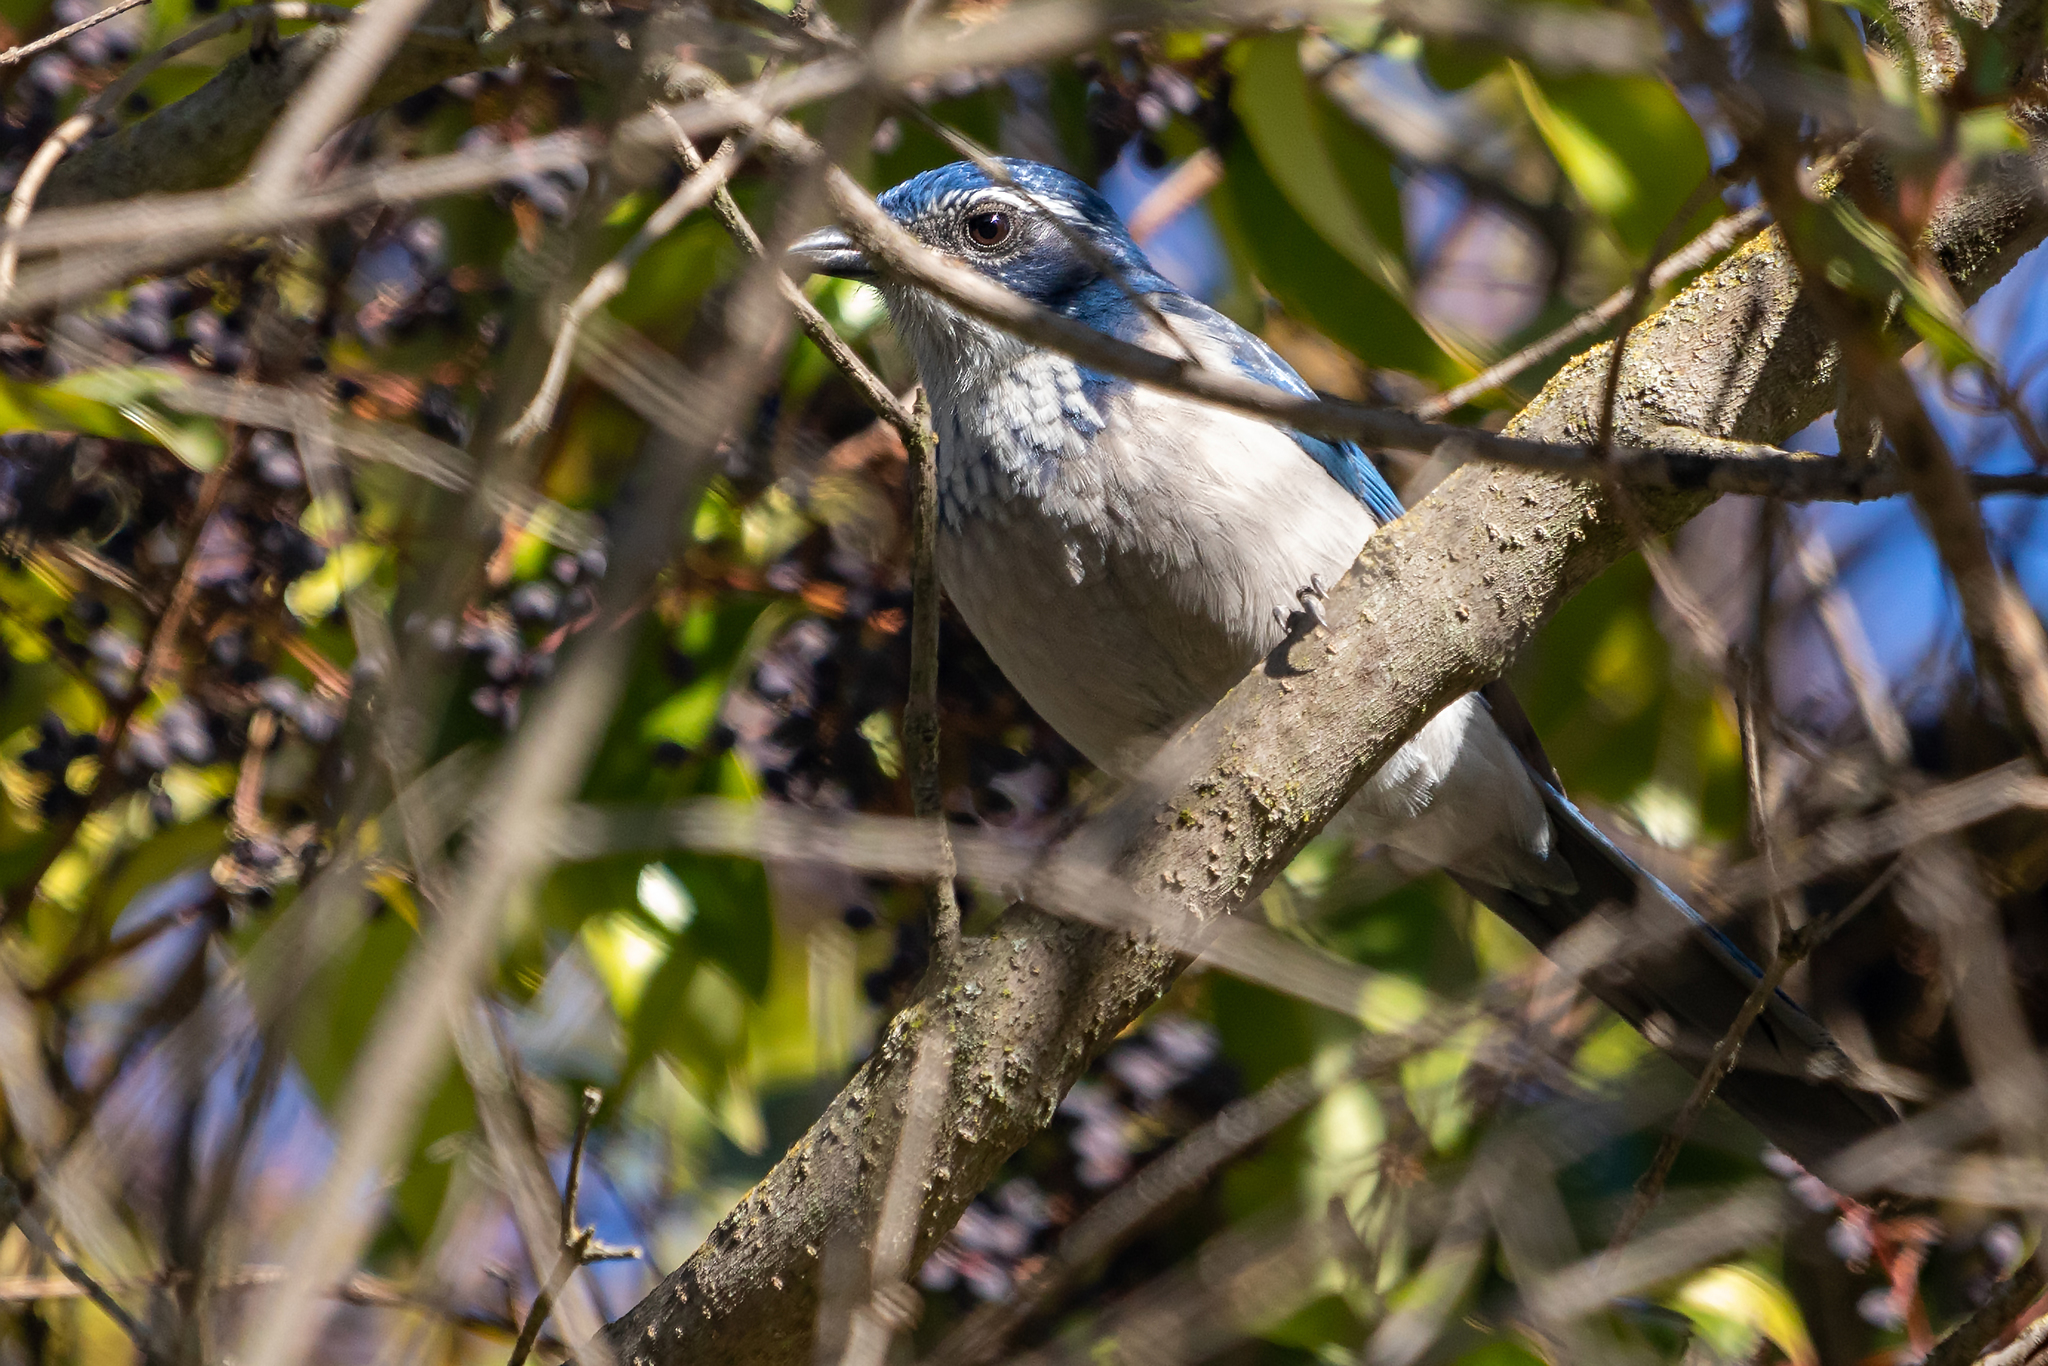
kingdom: Animalia
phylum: Chordata
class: Aves
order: Passeriformes
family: Corvidae
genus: Aphelocoma
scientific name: Aphelocoma californica
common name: California scrub-jay
